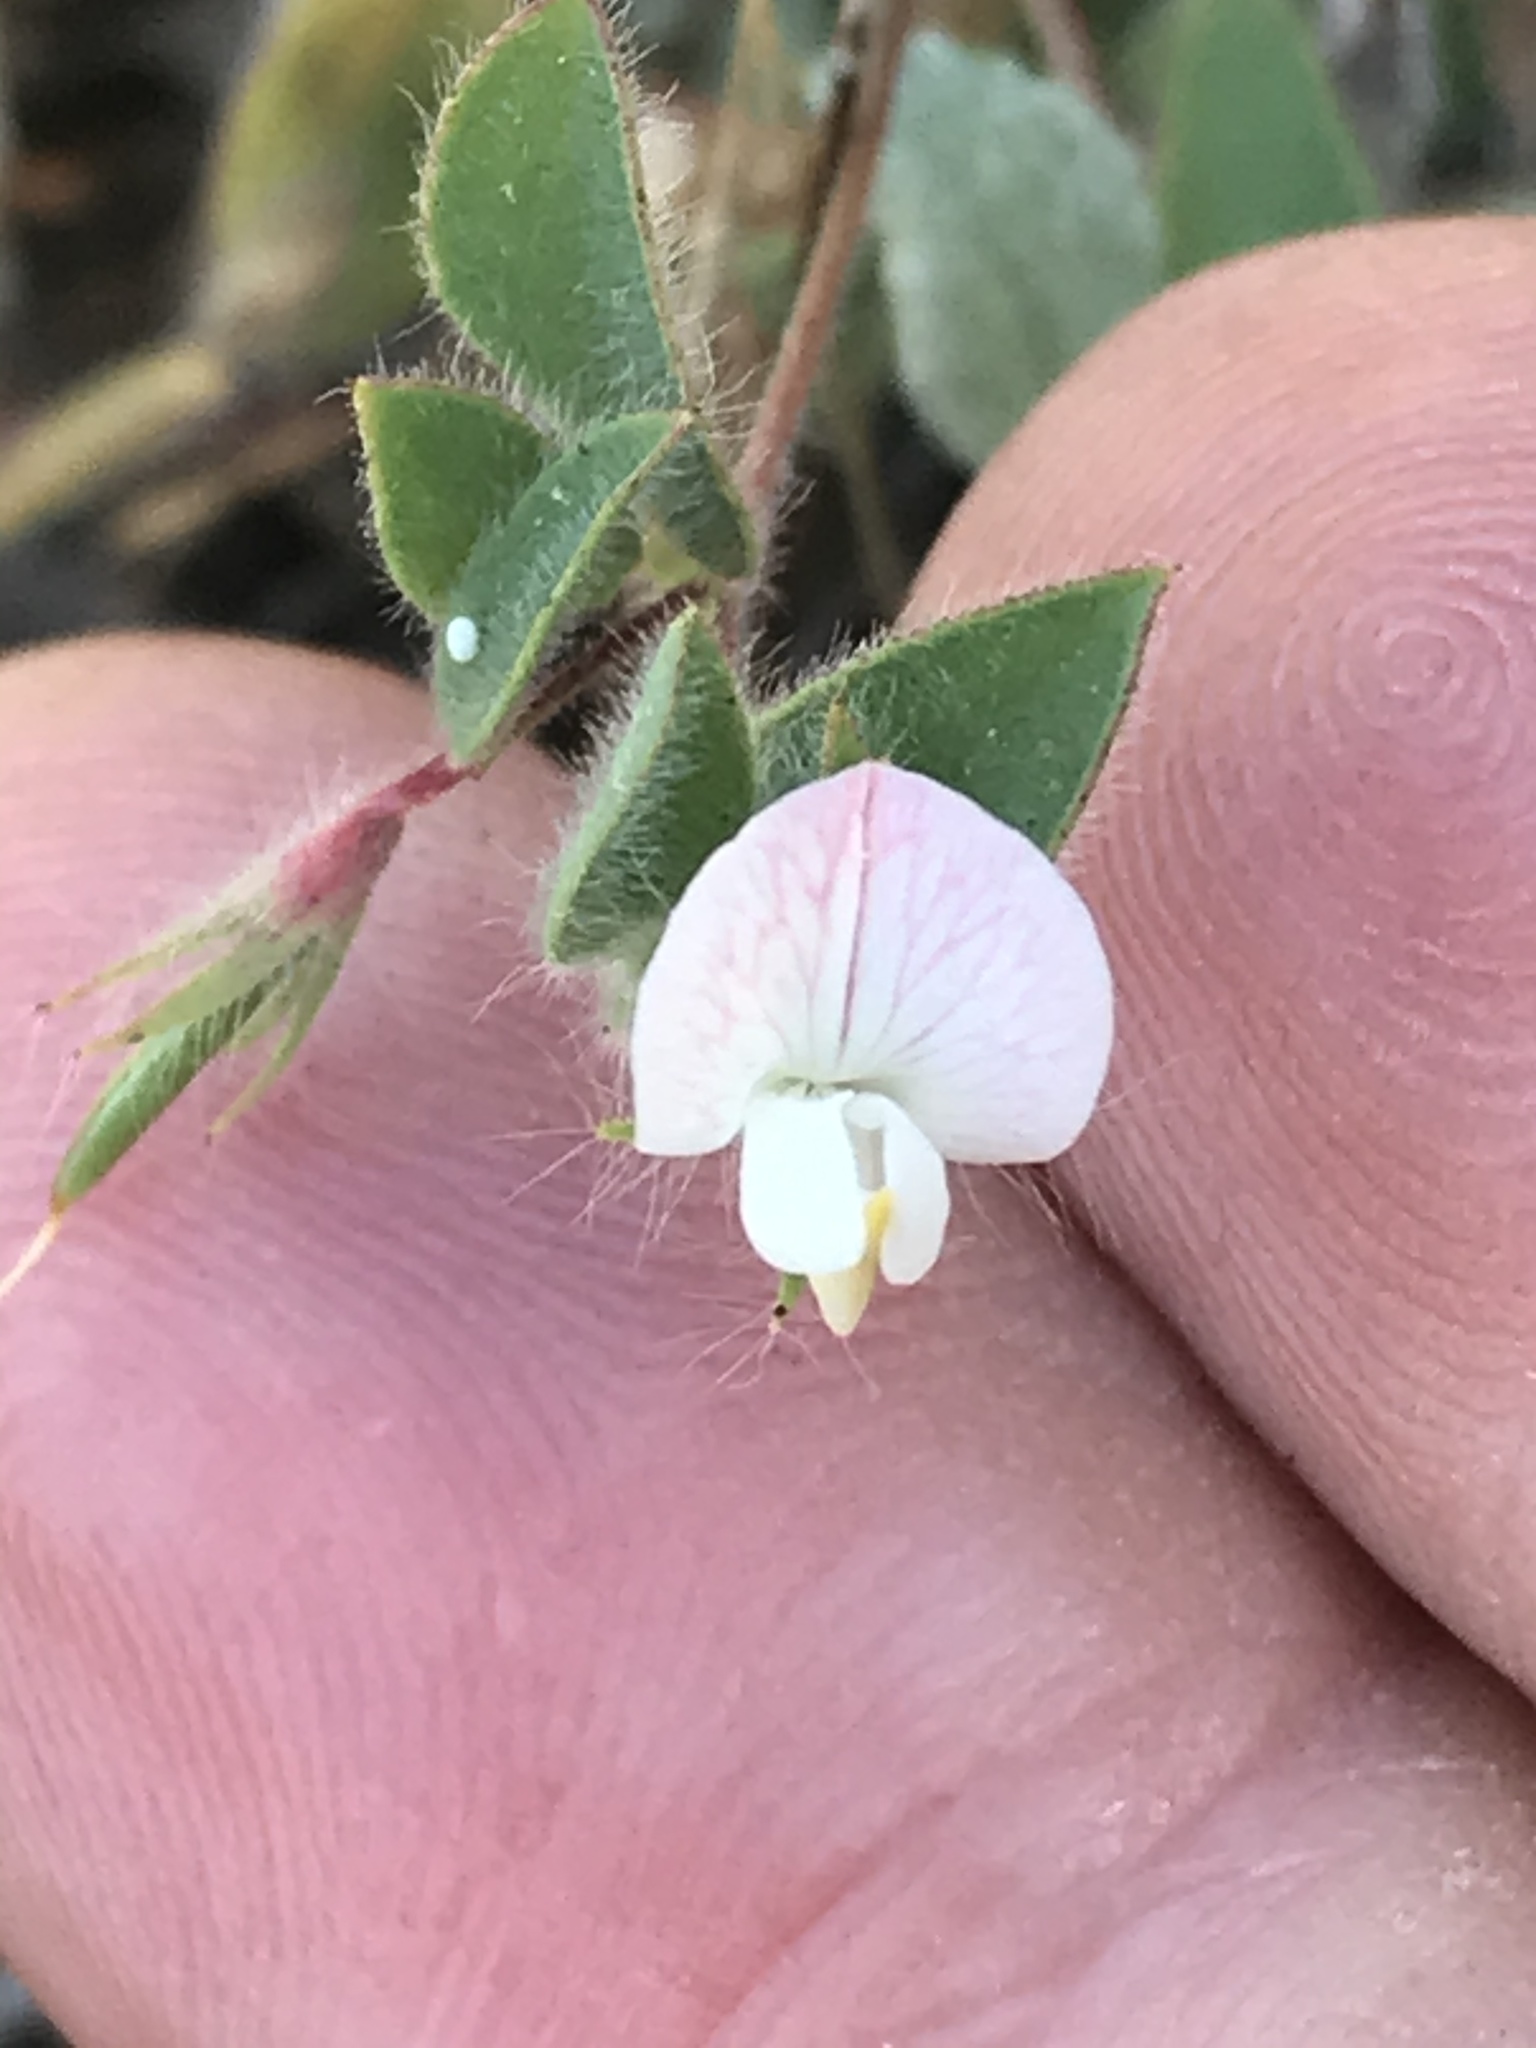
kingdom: Plantae
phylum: Tracheophyta
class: Magnoliopsida
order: Fabales
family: Fabaceae
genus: Acmispon
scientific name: Acmispon americanus
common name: American bird's-foot trefoil
